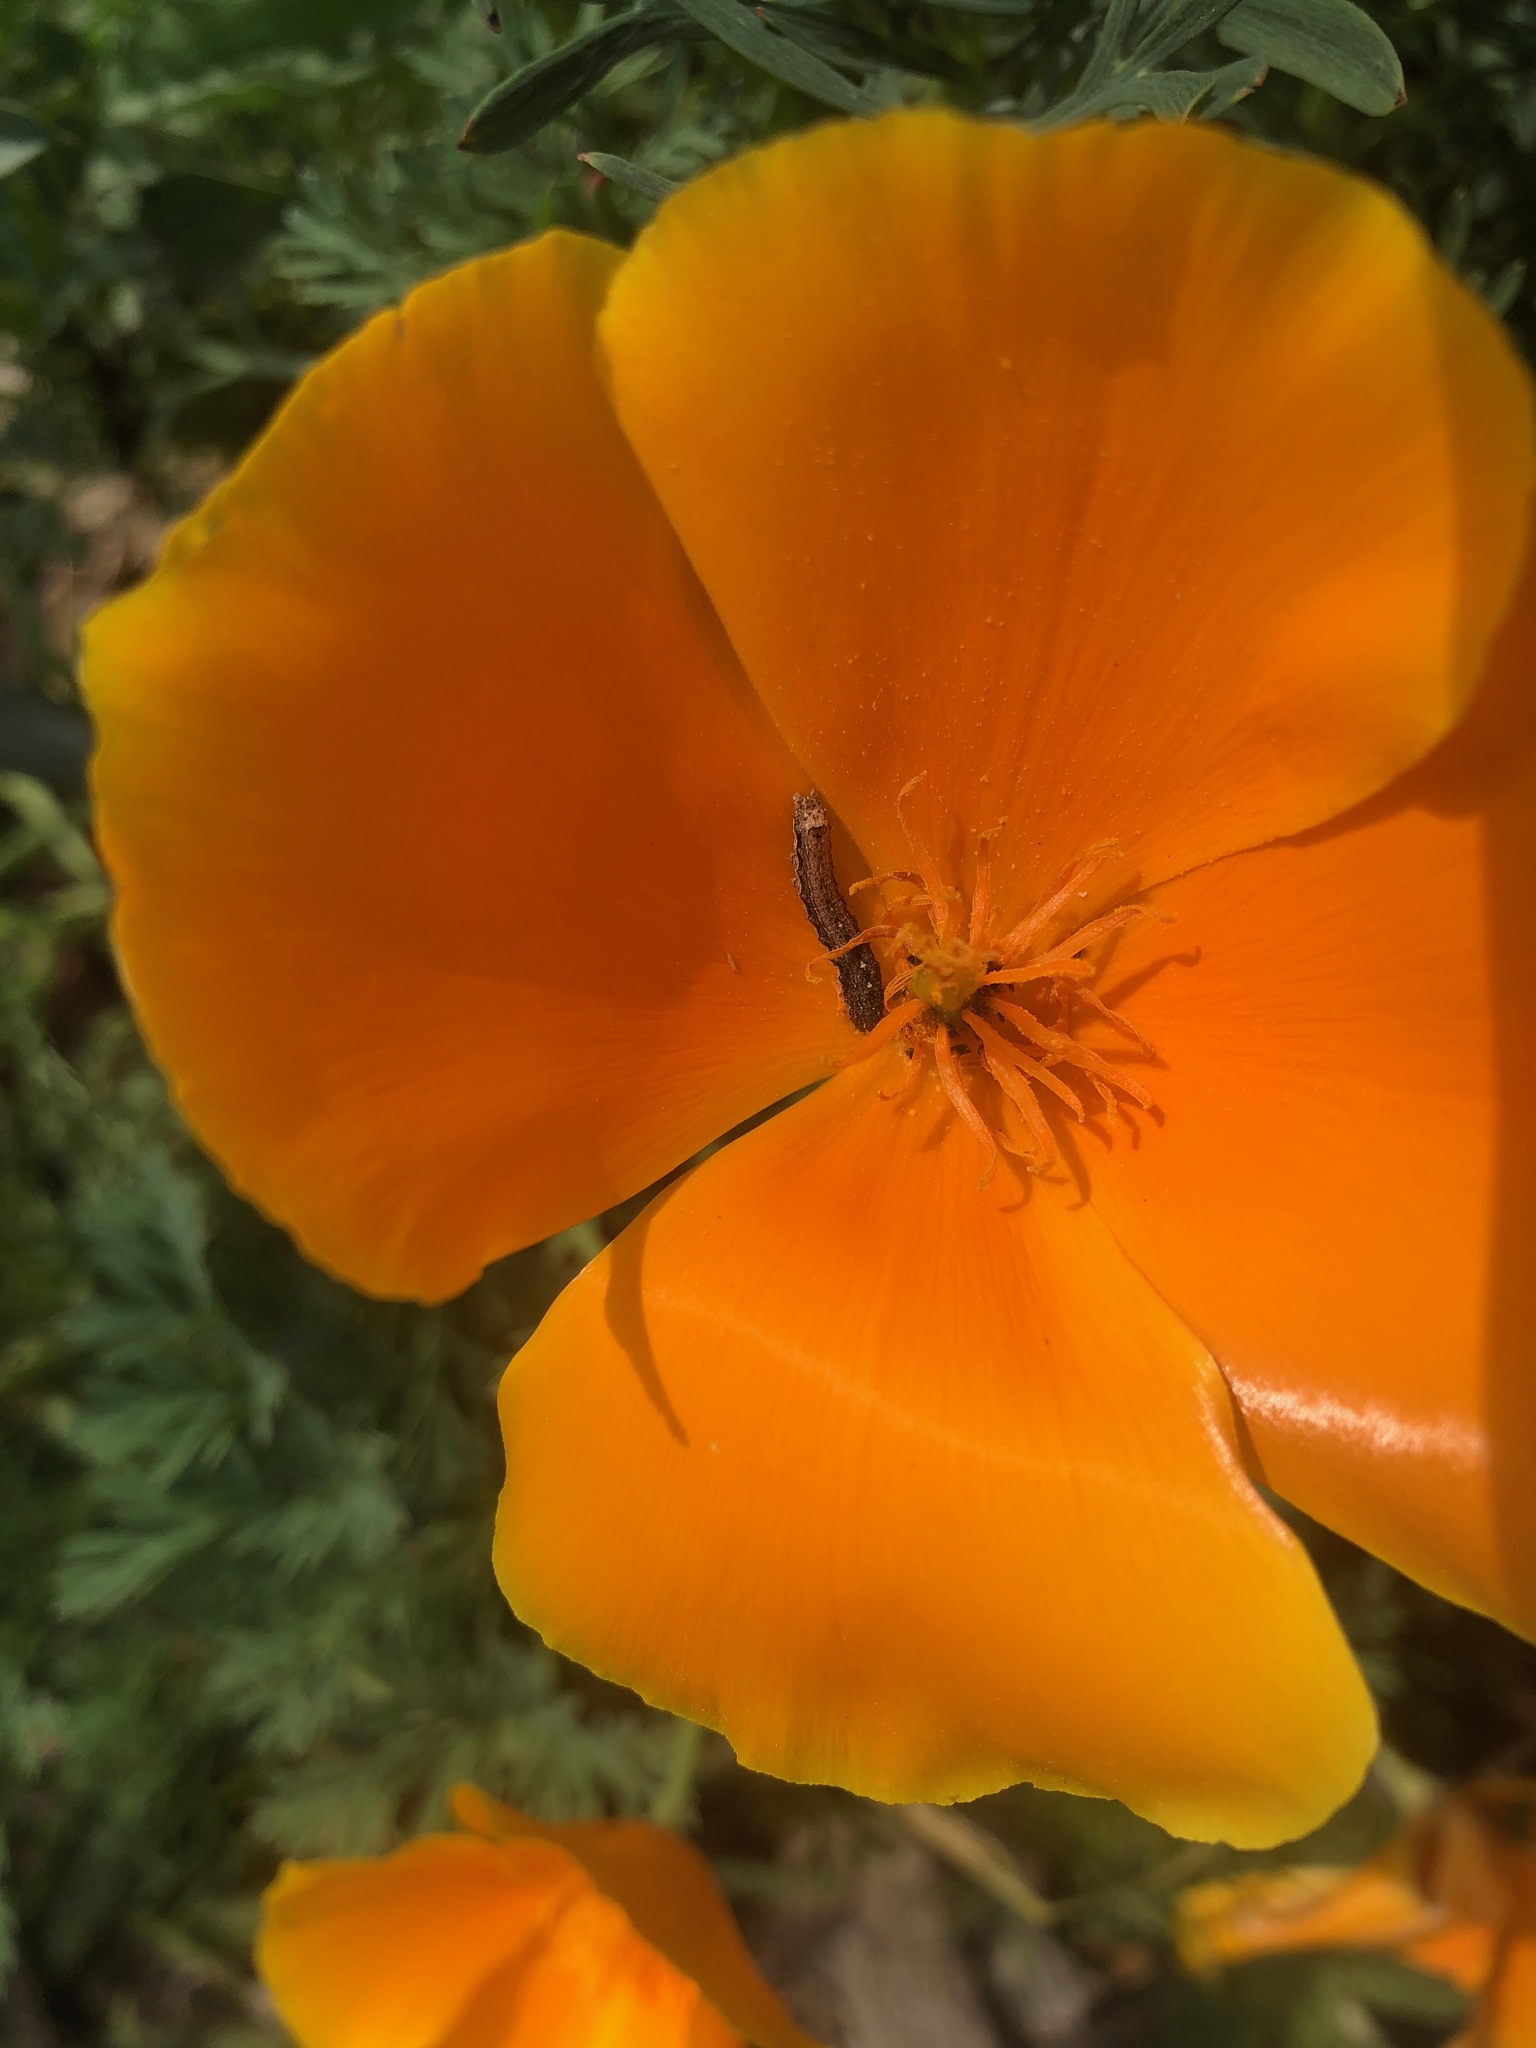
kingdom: Plantae
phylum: Tracheophyta
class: Magnoliopsida
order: Ranunculales
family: Papaveraceae
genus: Eschscholzia
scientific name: Eschscholzia californica
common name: California poppy
